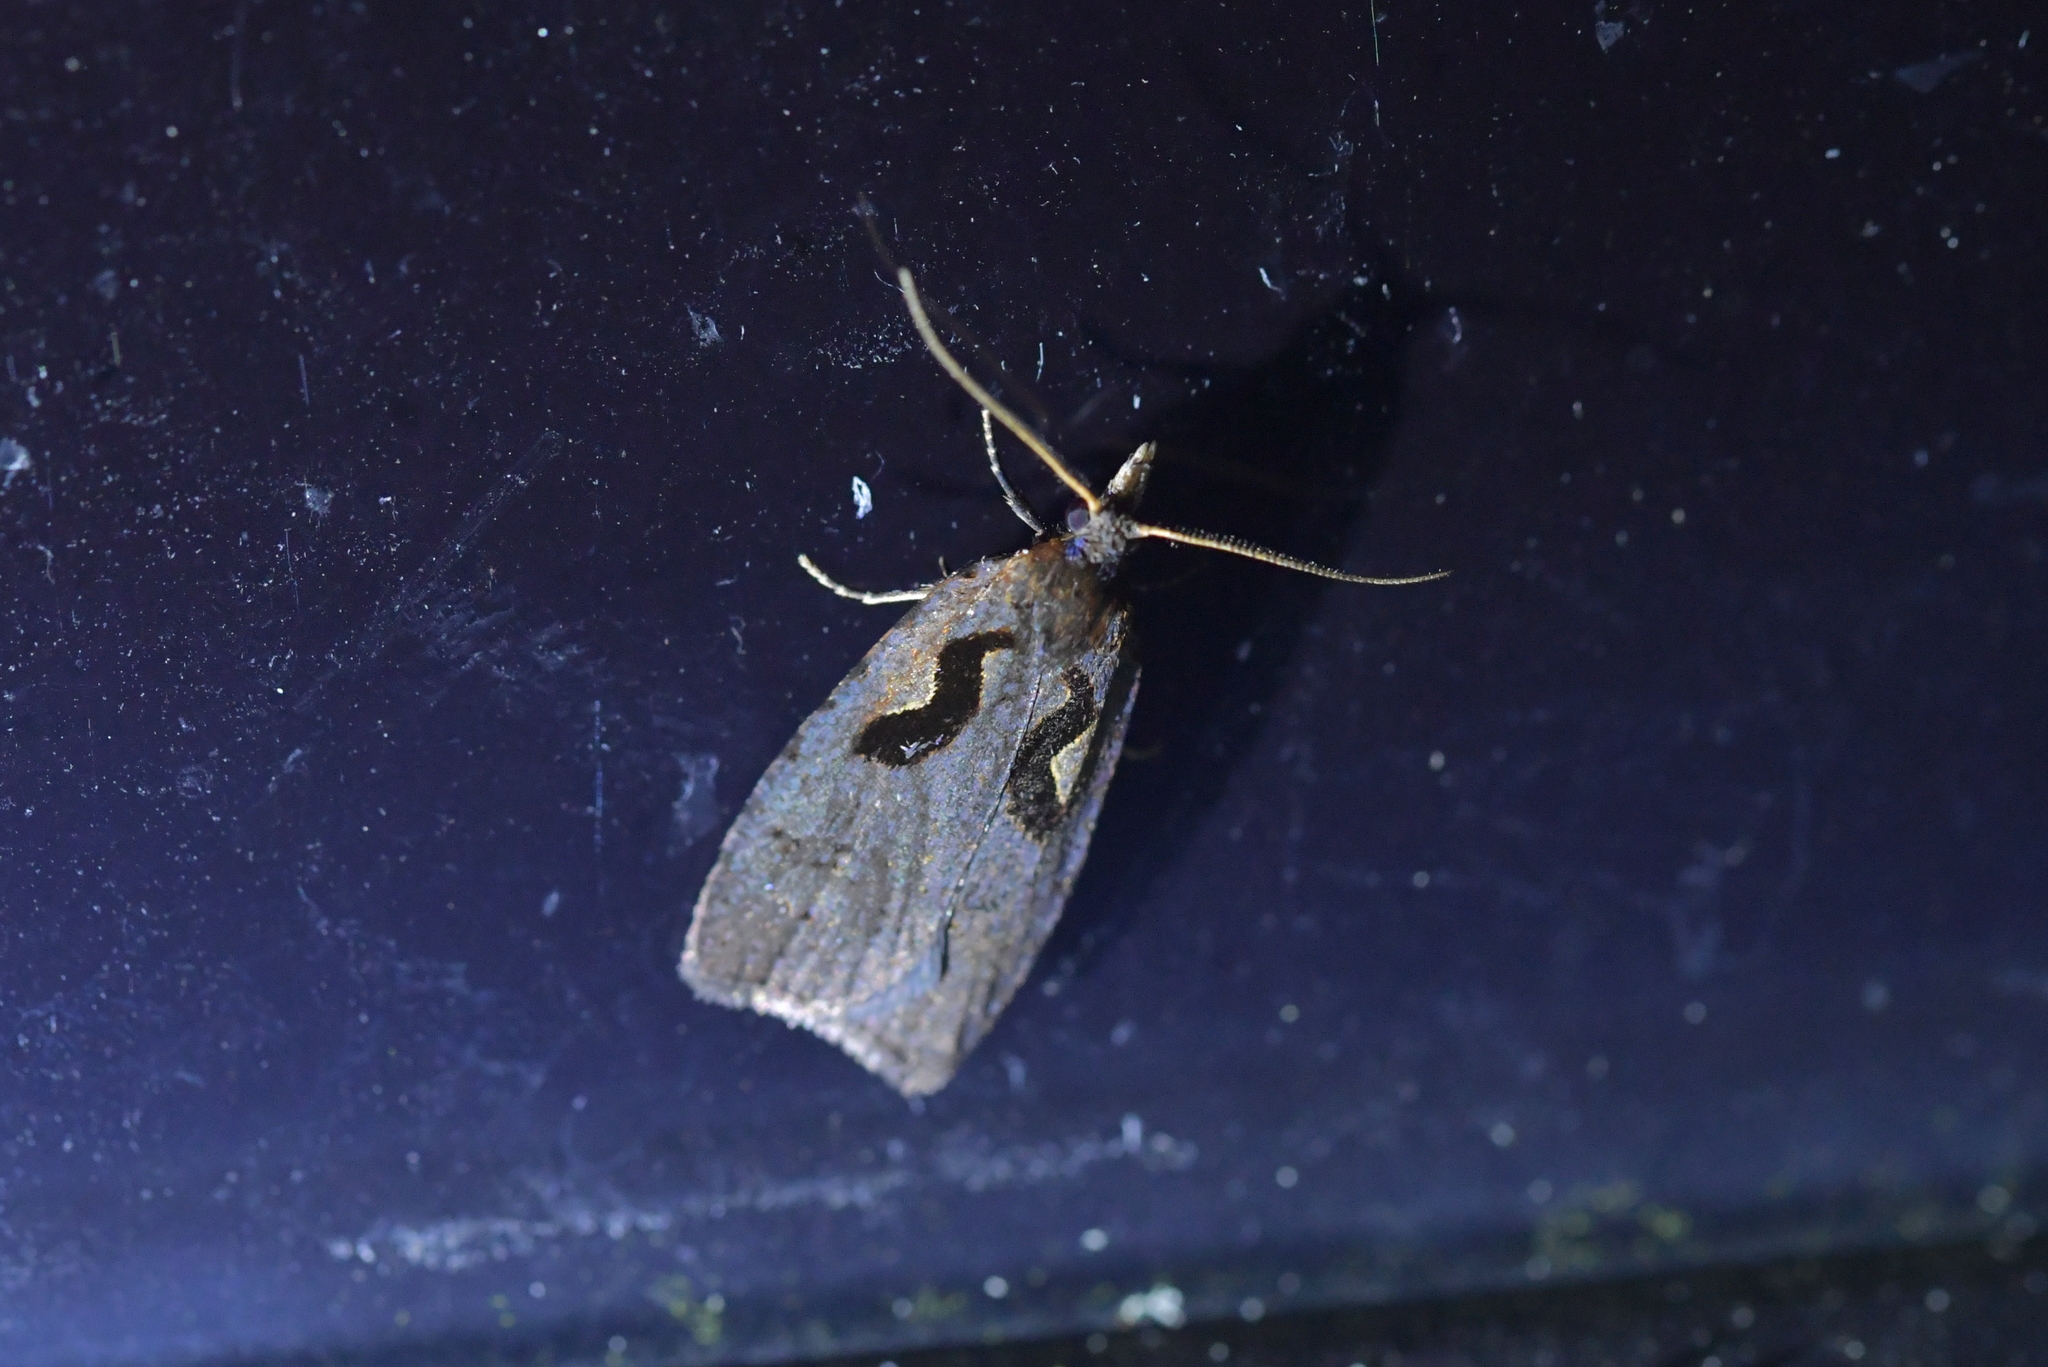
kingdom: Animalia
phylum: Arthropoda
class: Insecta
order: Lepidoptera
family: Tortricidae
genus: Cnephasia
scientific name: Cnephasia jactatana
